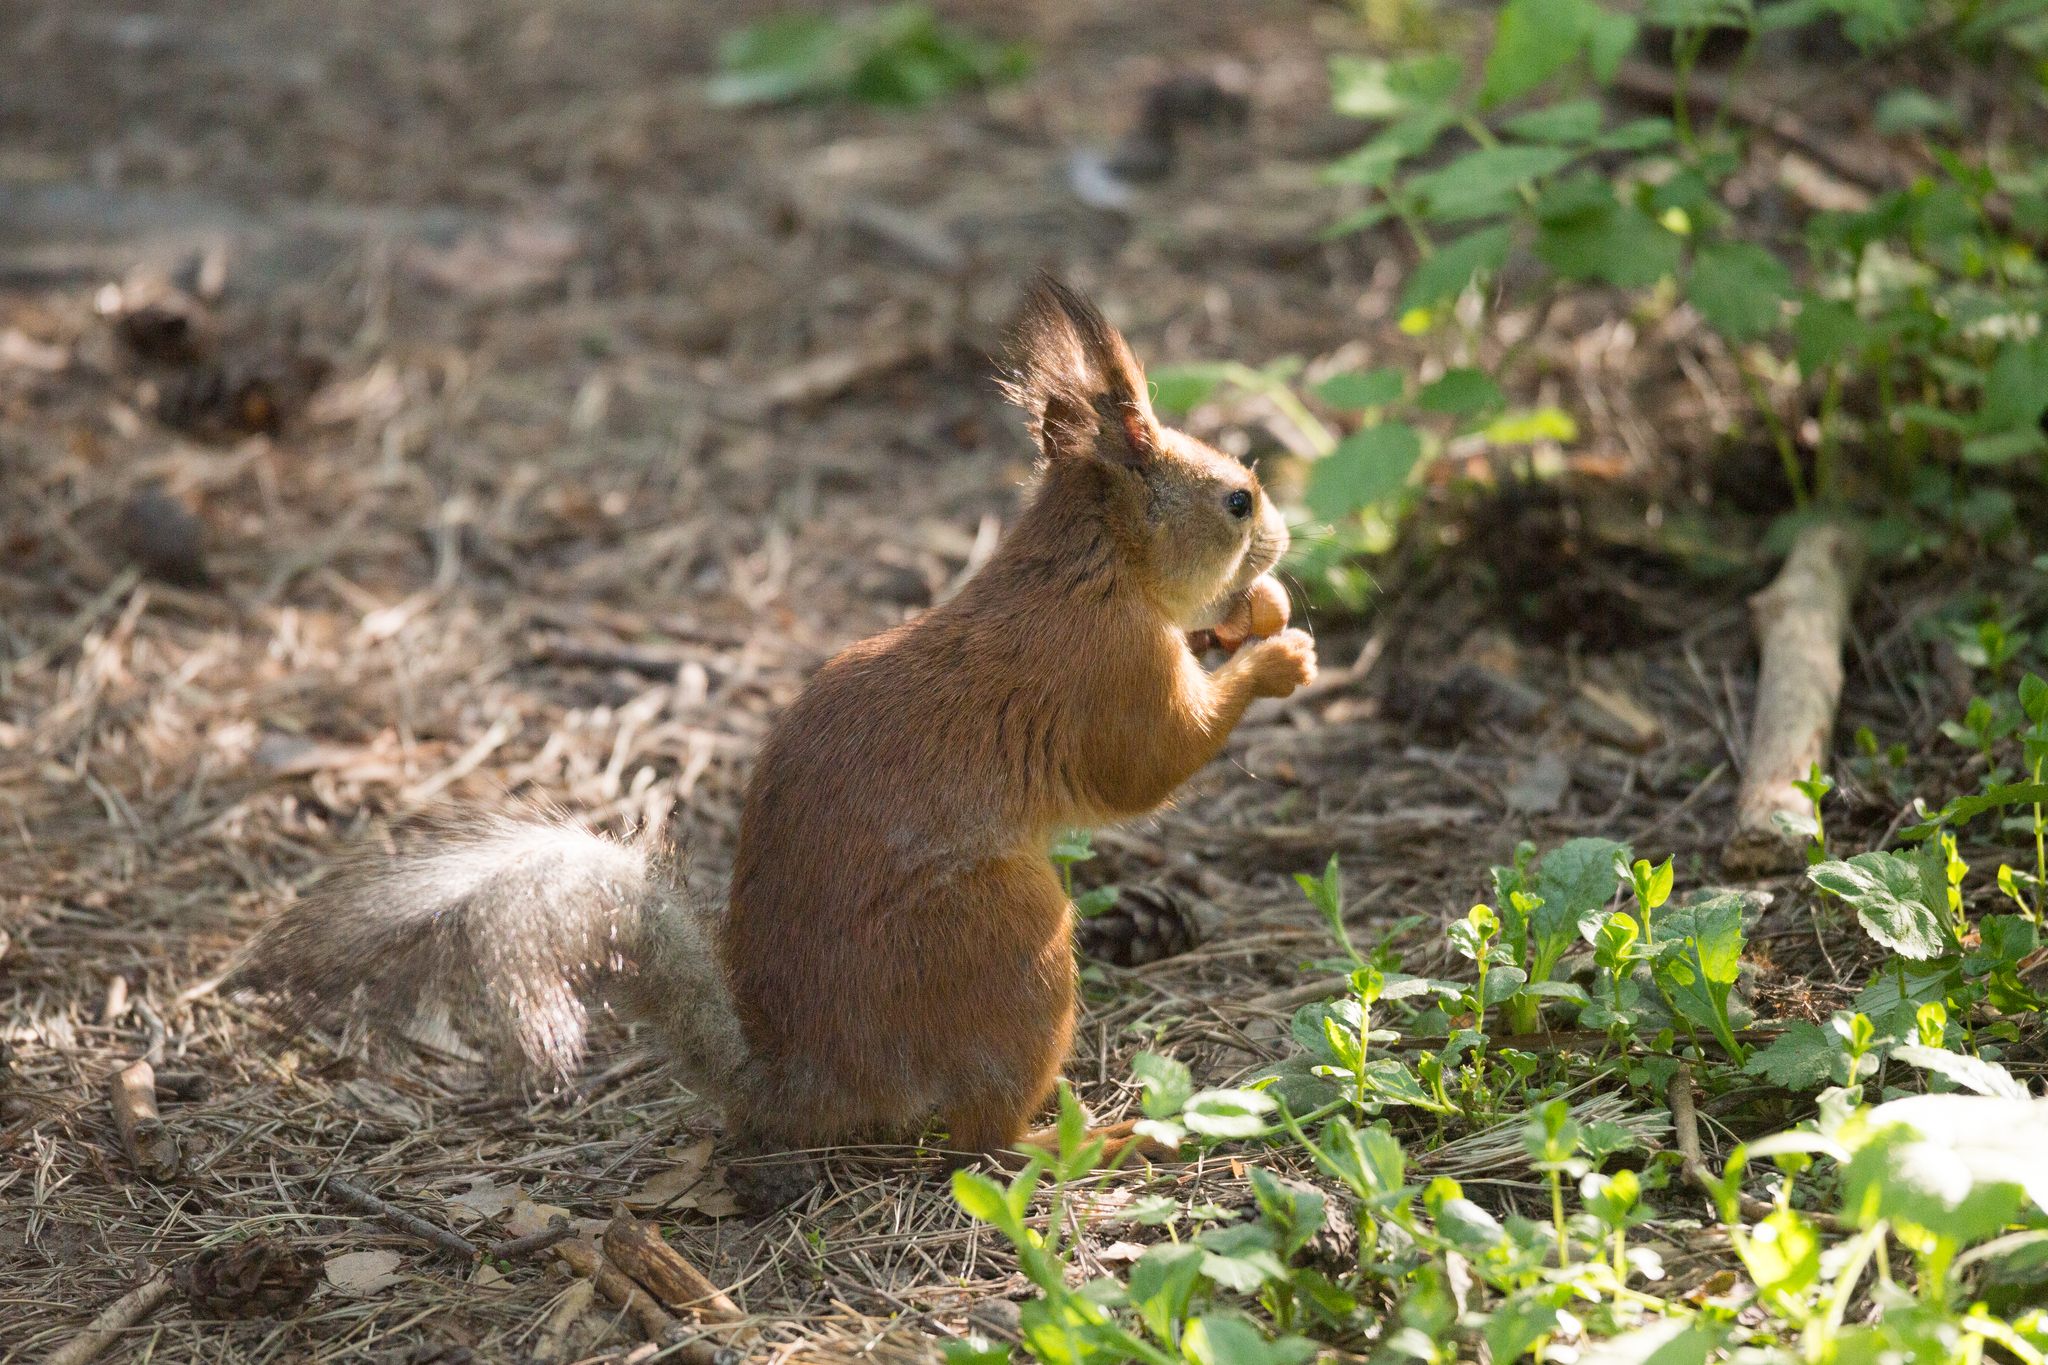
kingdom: Animalia
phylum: Chordata
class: Mammalia
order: Rodentia
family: Sciuridae
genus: Sciurus
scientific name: Sciurus vulgaris
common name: Eurasian red squirrel
